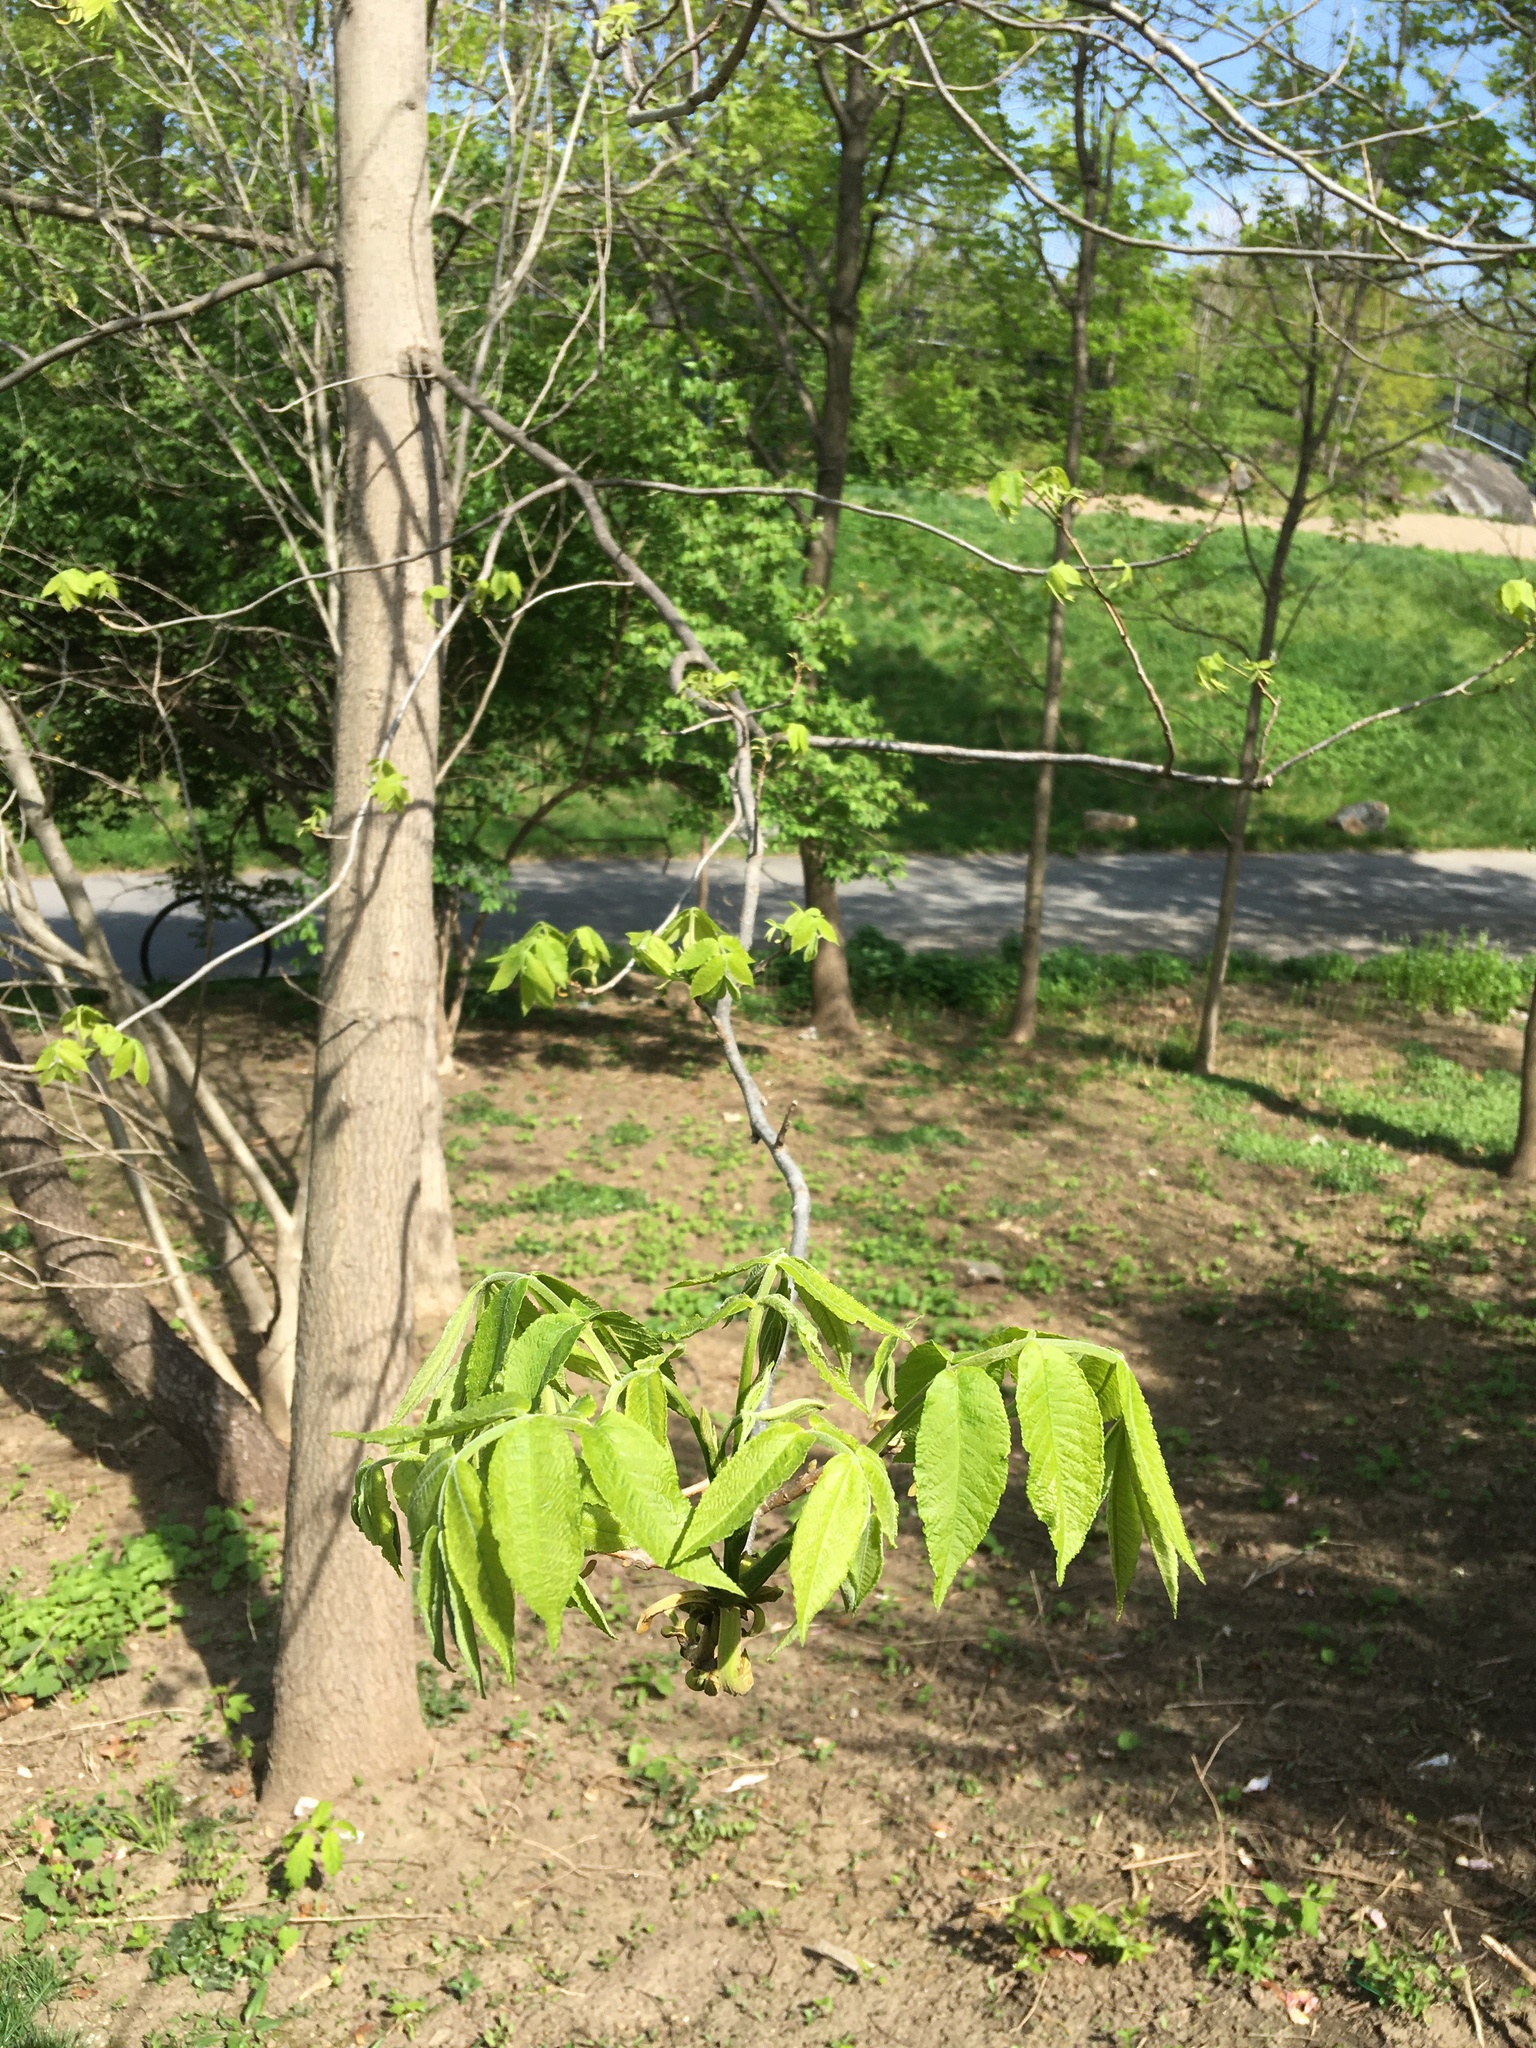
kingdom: Plantae
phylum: Tracheophyta
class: Magnoliopsida
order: Fagales
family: Juglandaceae
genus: Carya
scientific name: Carya cordiformis
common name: Bitternut hickory
